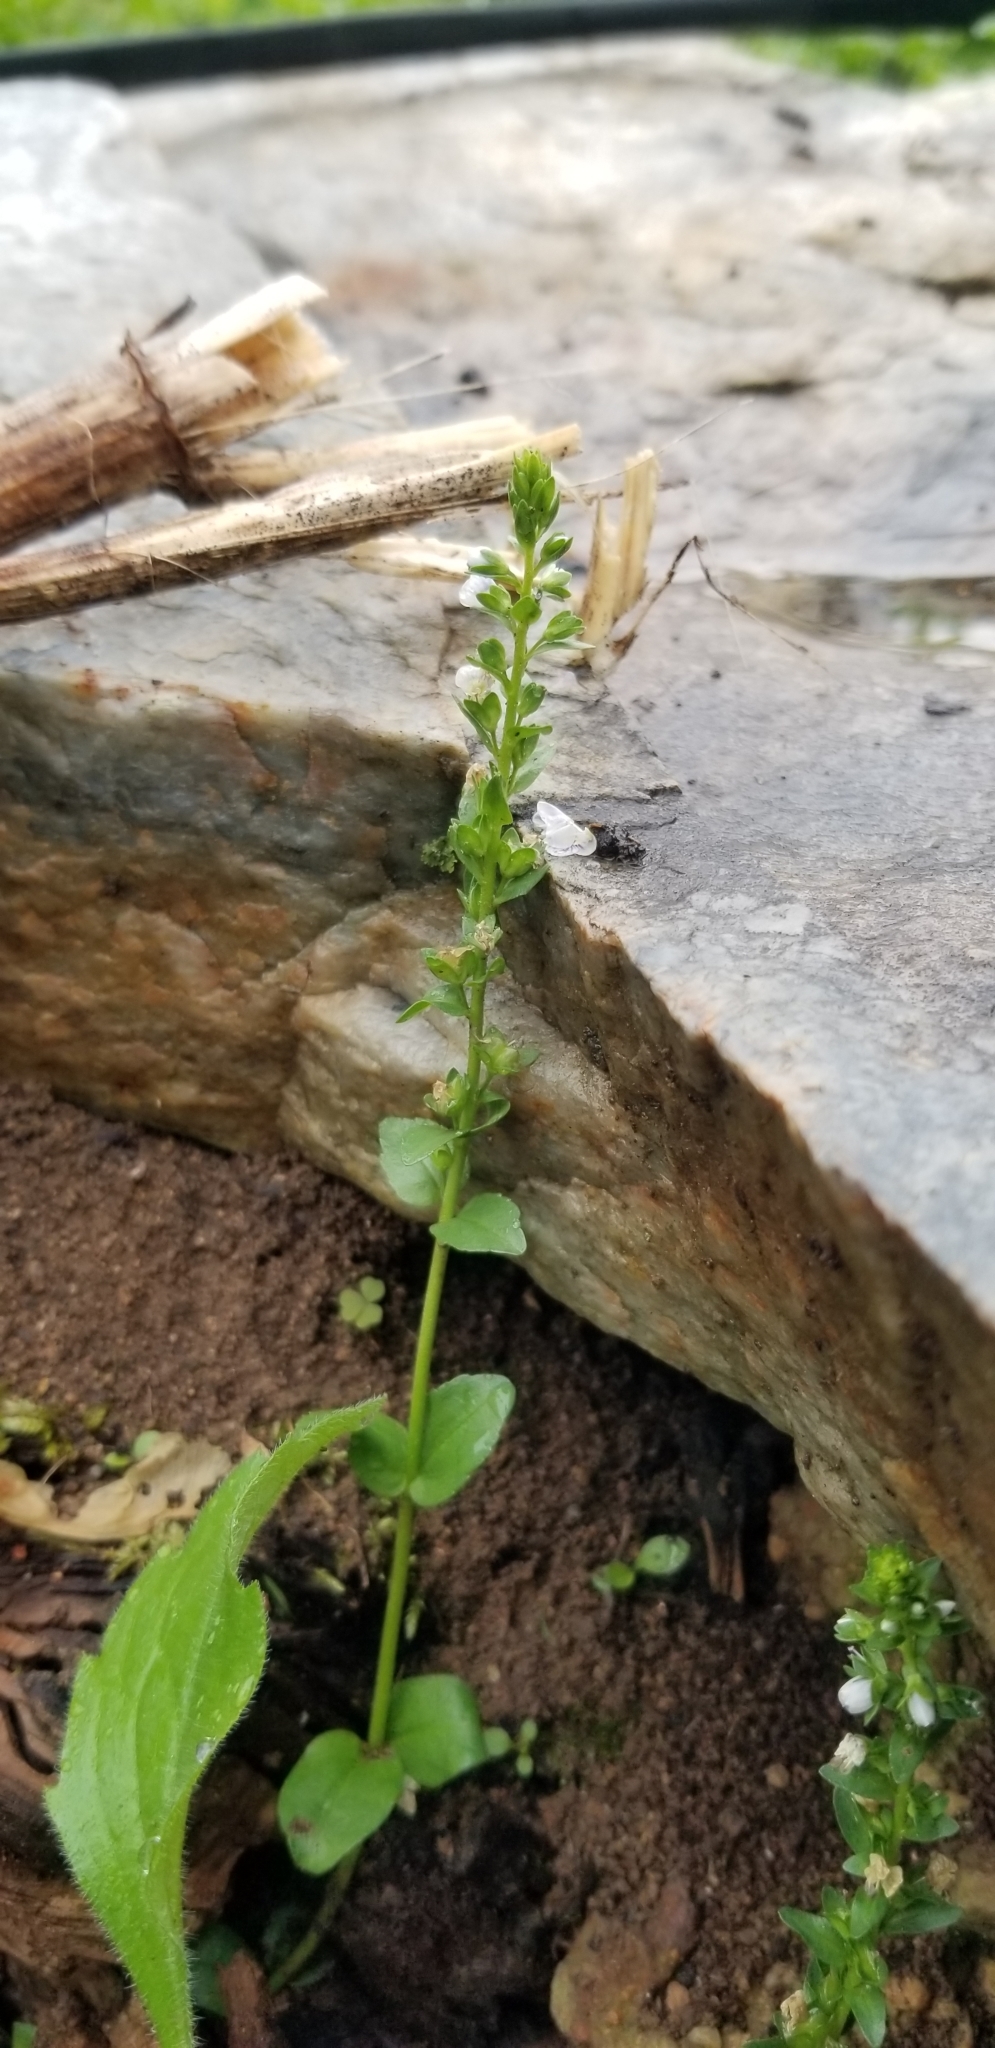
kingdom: Plantae
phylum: Tracheophyta
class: Magnoliopsida
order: Lamiales
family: Plantaginaceae
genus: Veronica
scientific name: Veronica serpyllifolia
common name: Thyme-leaved speedwell
